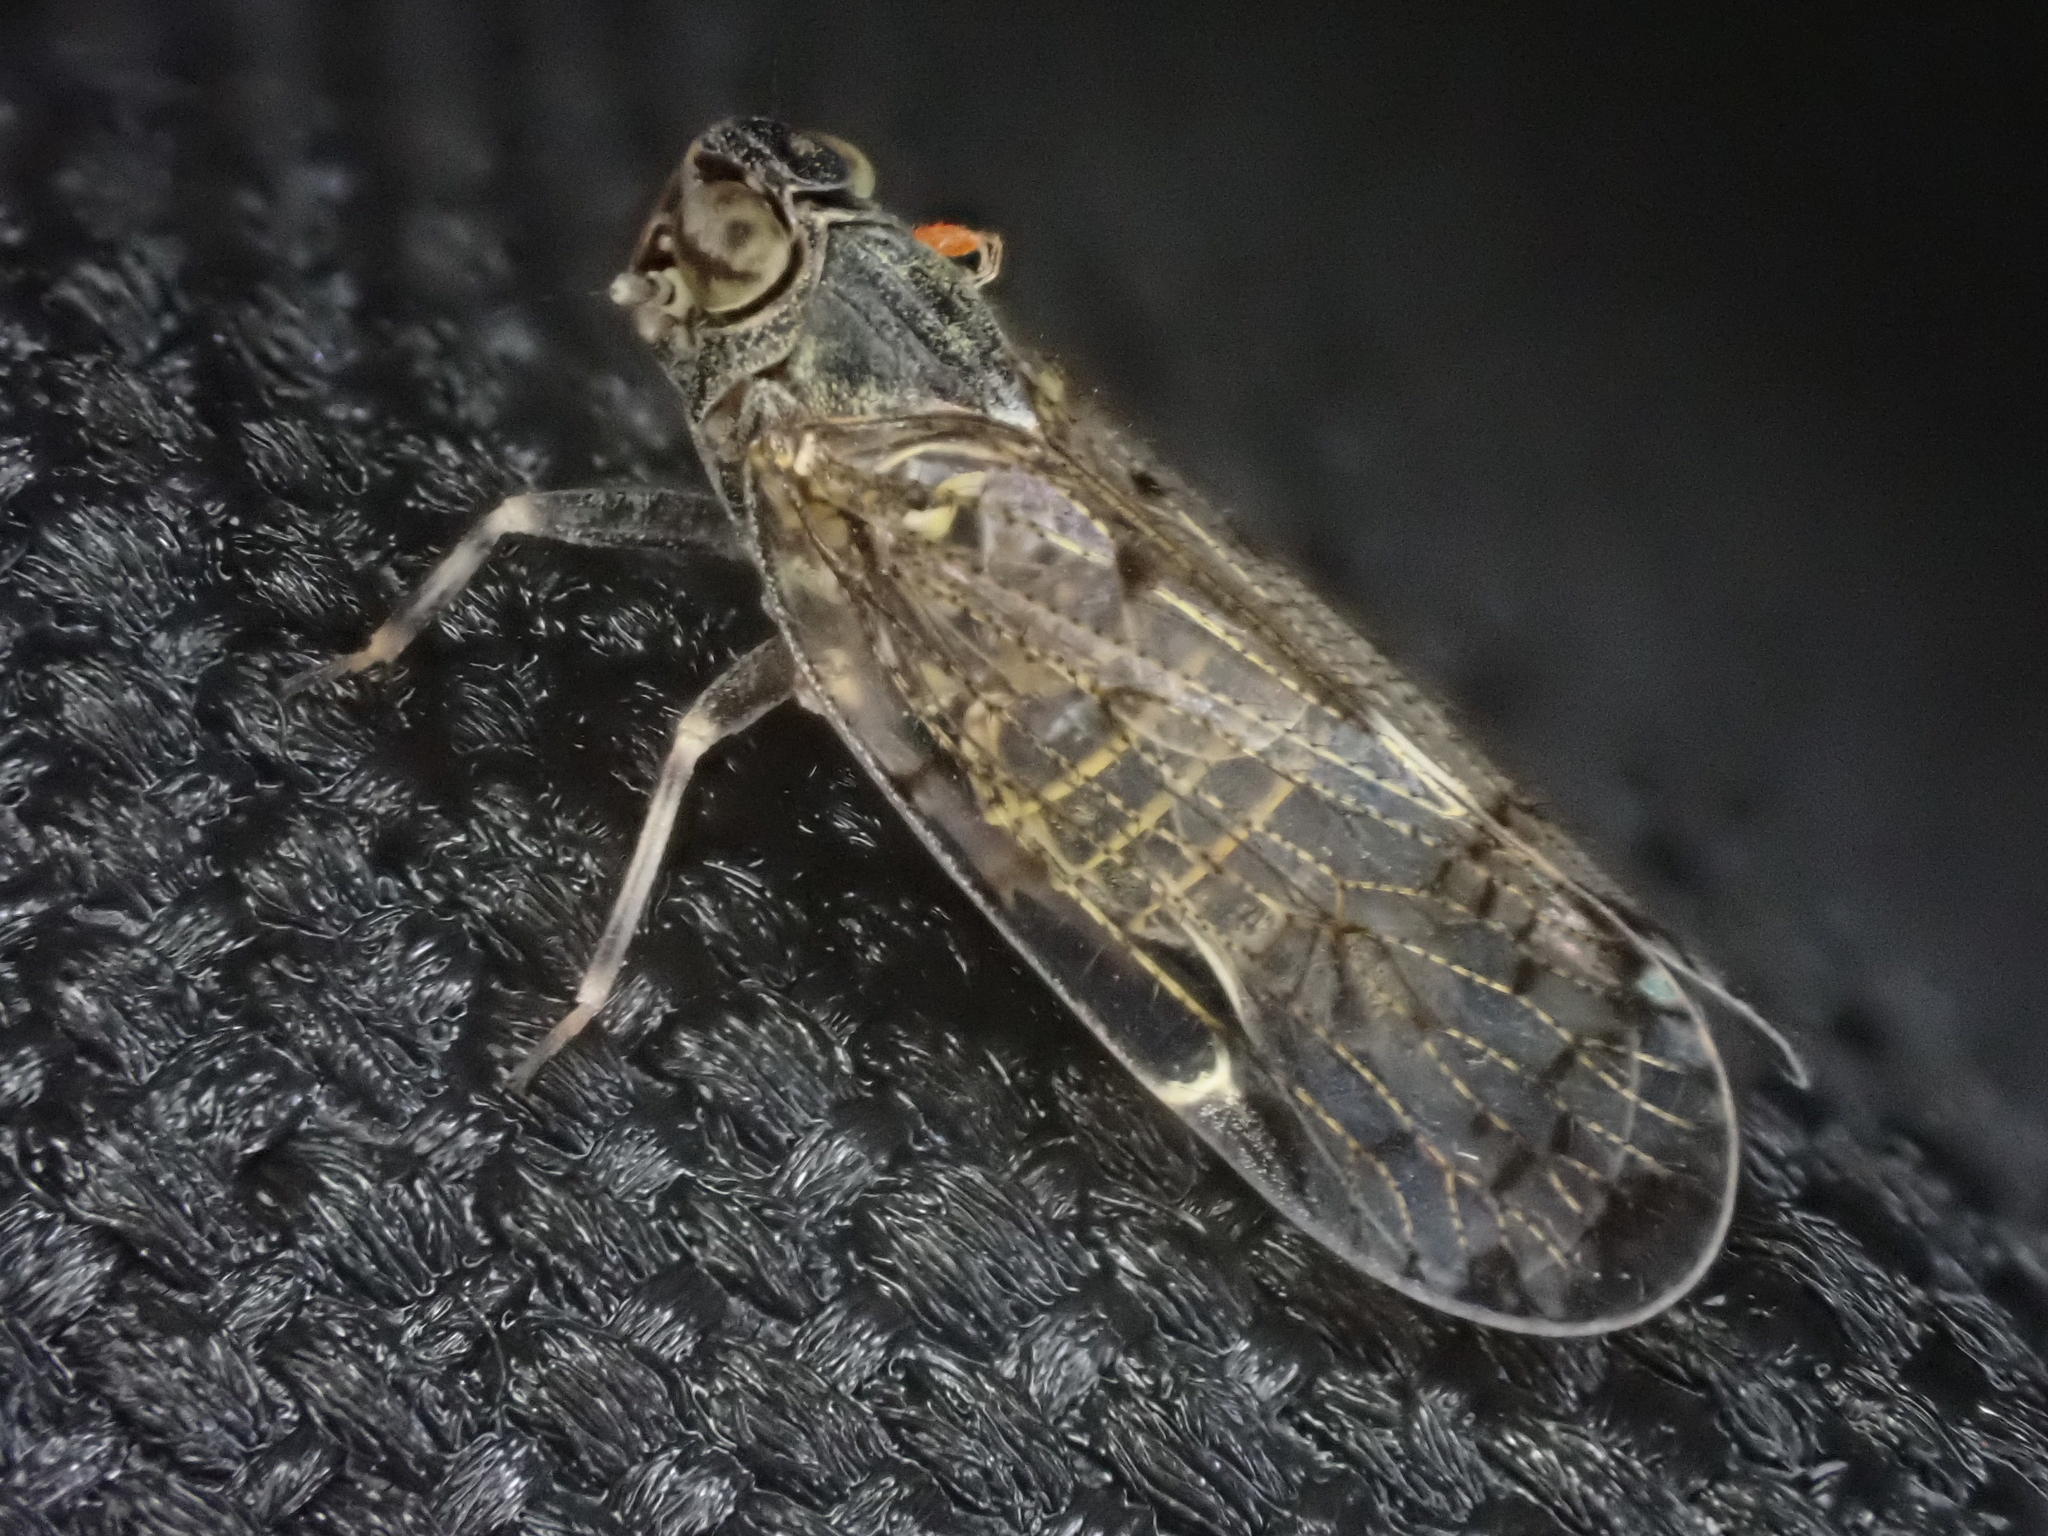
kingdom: Animalia
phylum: Arthropoda
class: Insecta
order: Hemiptera
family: Cixiidae
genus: Melanoliarus
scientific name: Melanoliarus placitus
